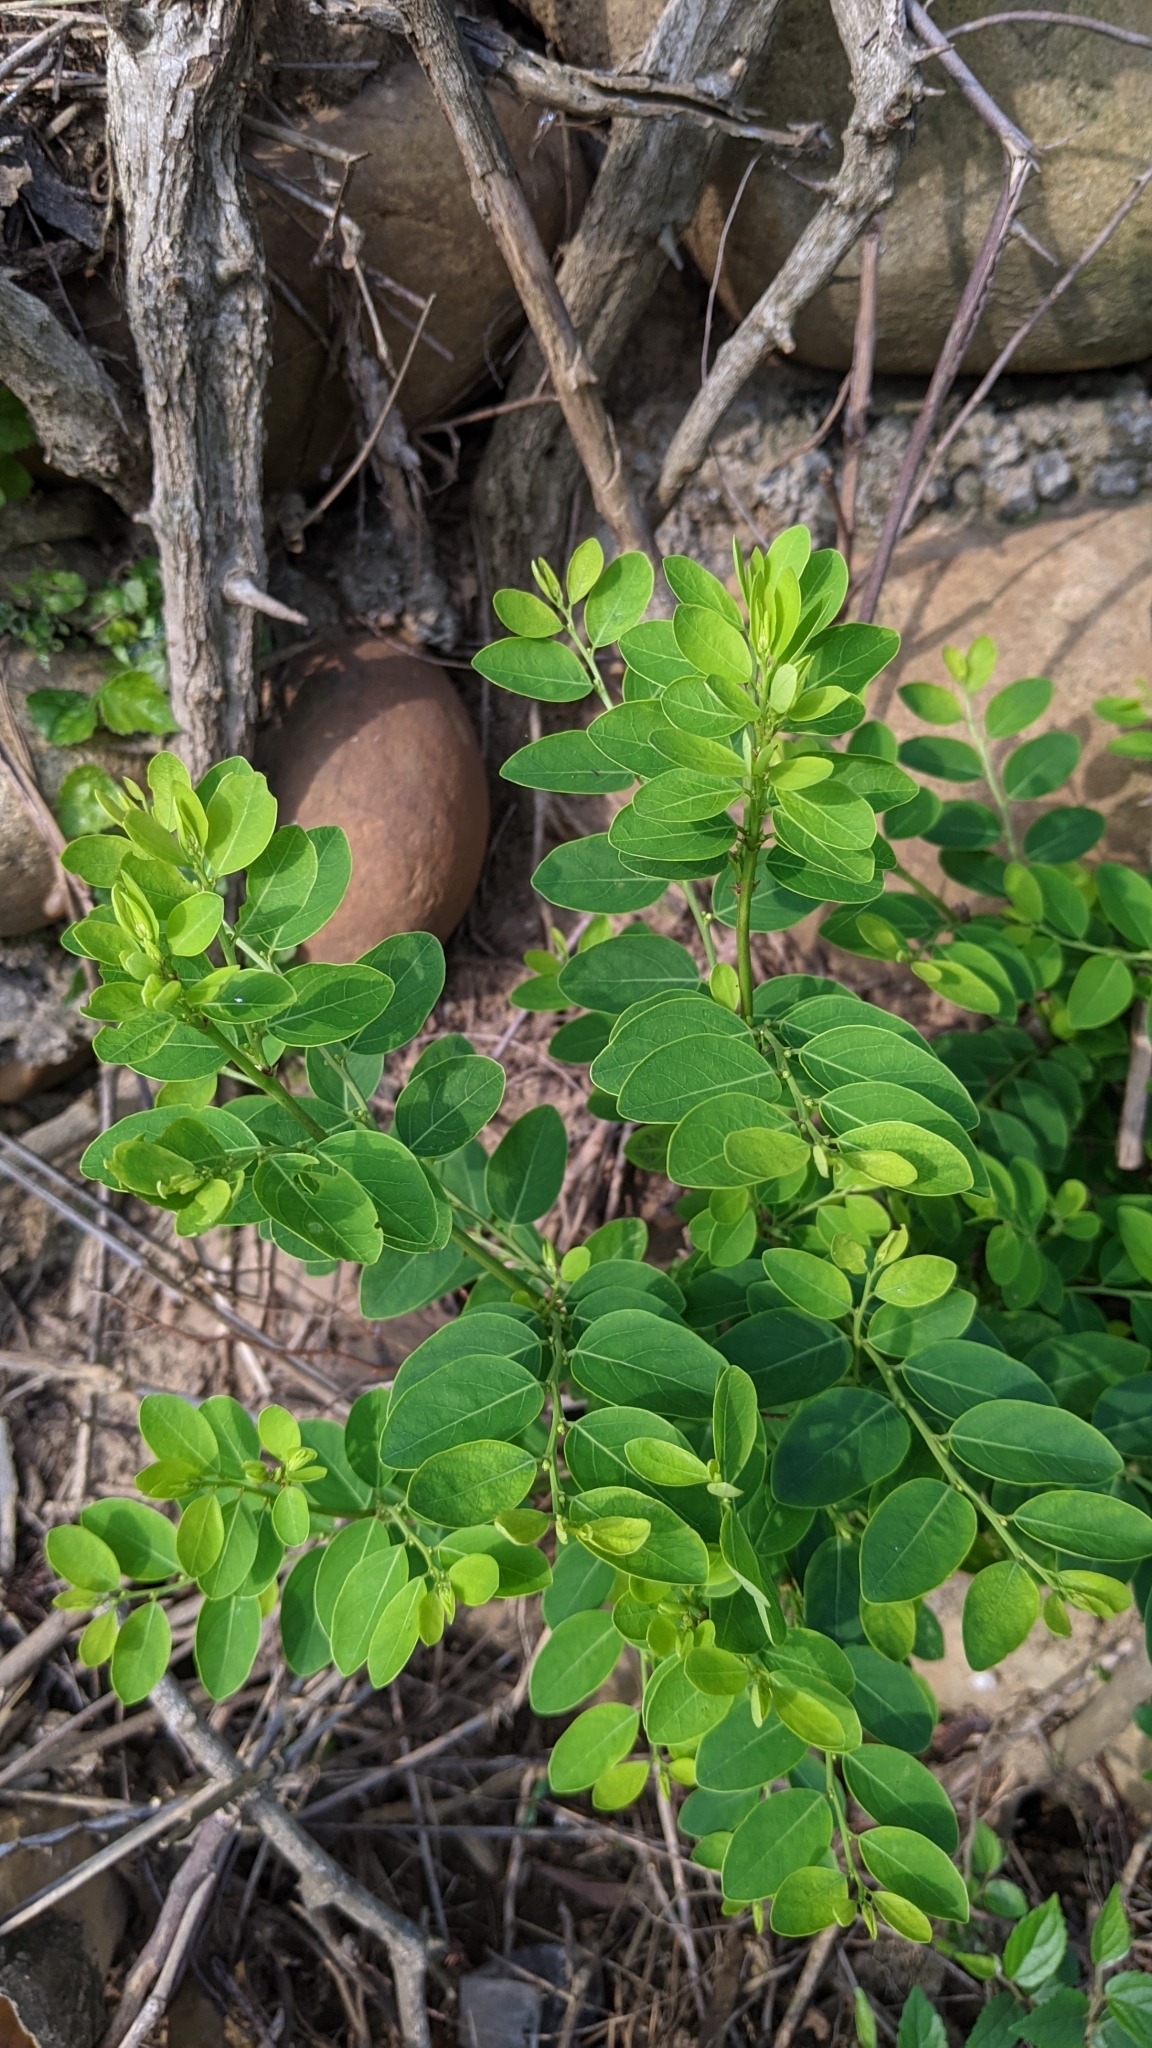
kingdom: Plantae
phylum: Tracheophyta
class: Magnoliopsida
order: Malpighiales
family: Phyllanthaceae
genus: Breynia
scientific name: Breynia vitis-idaea
